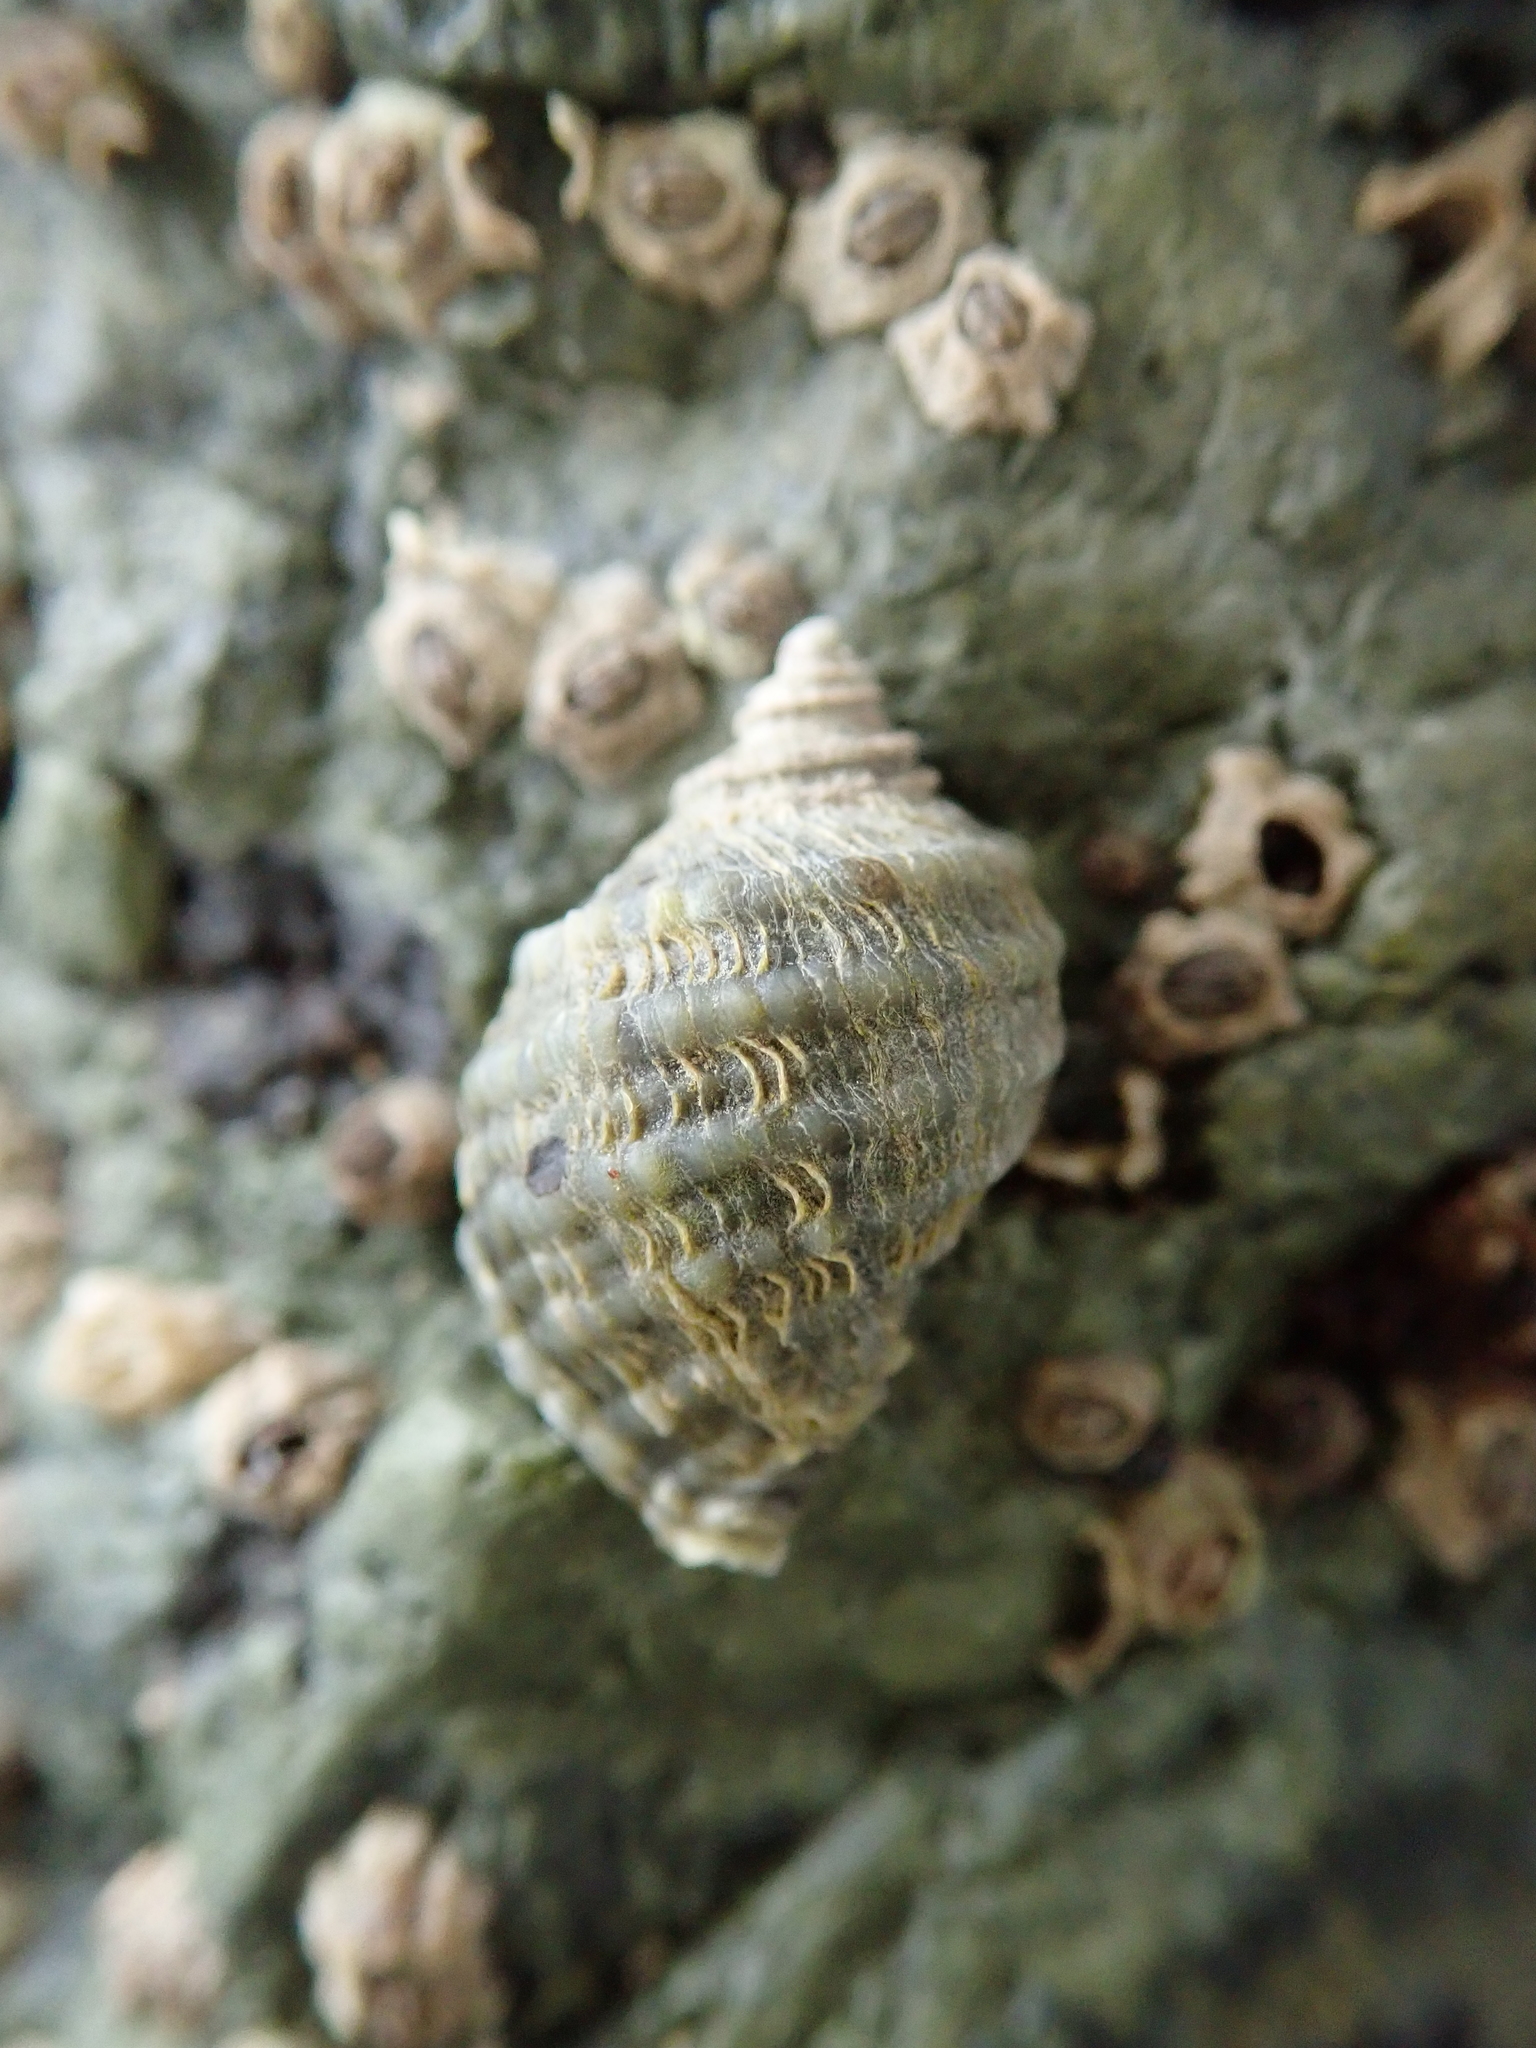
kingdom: Animalia
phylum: Mollusca
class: Gastropoda
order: Neogastropoda
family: Muricidae
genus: Nucella
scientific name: Nucella ostrina
